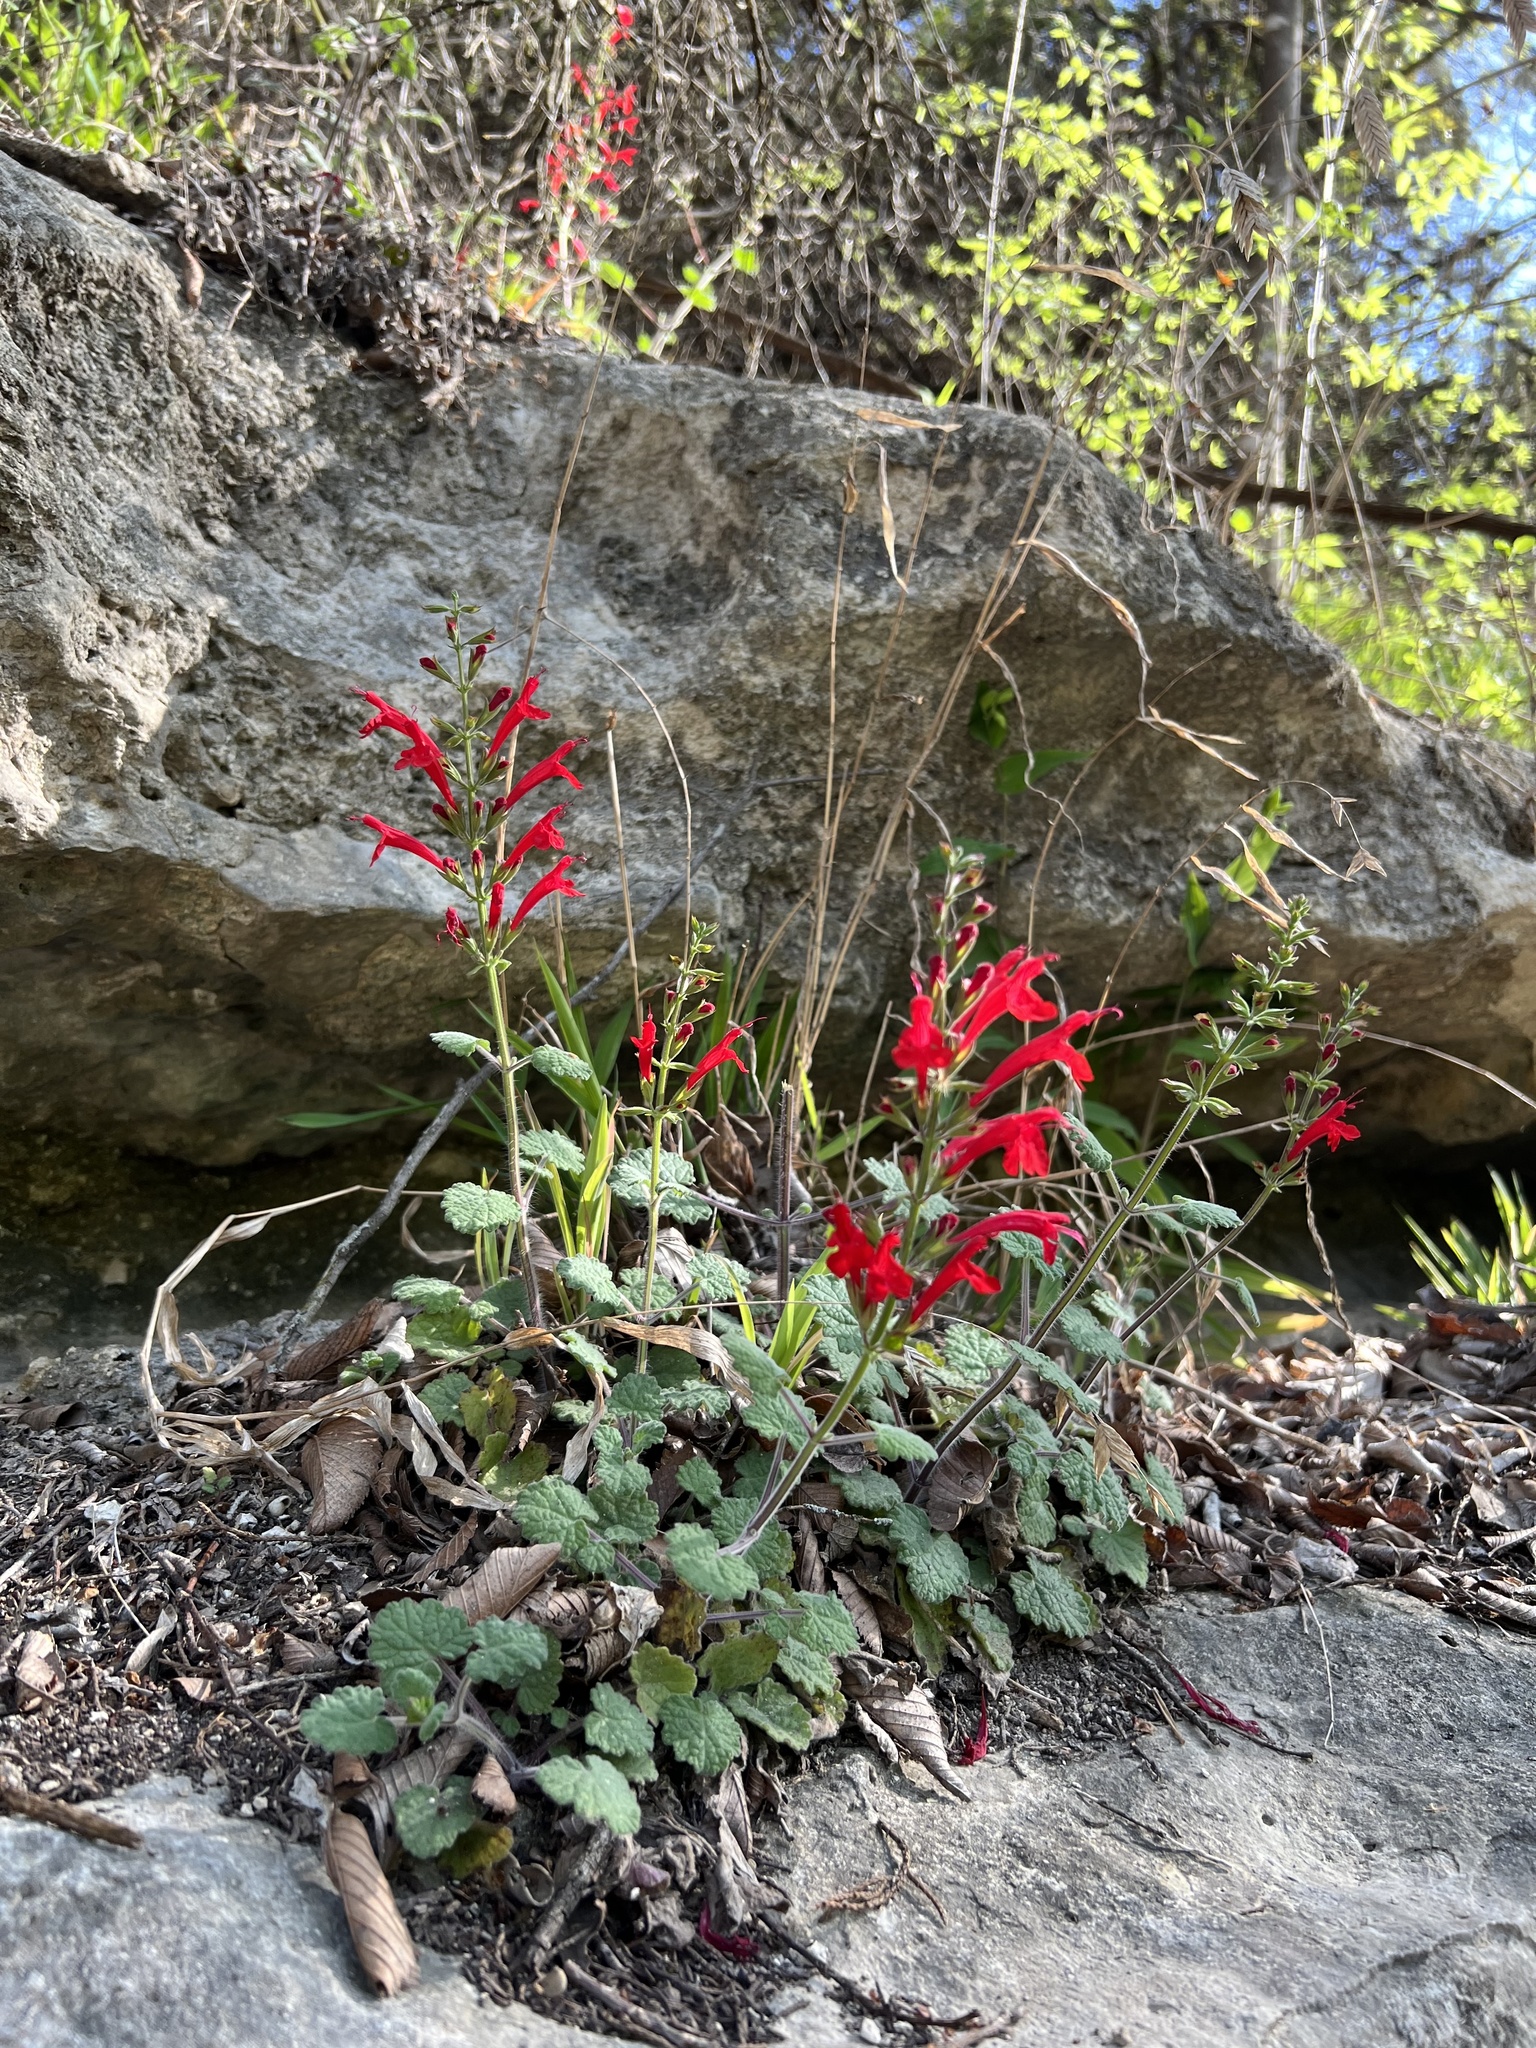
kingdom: Plantae
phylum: Tracheophyta
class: Magnoliopsida
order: Lamiales
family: Lamiaceae
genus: Salvia
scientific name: Salvia roemeriana
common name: Cedar sage
